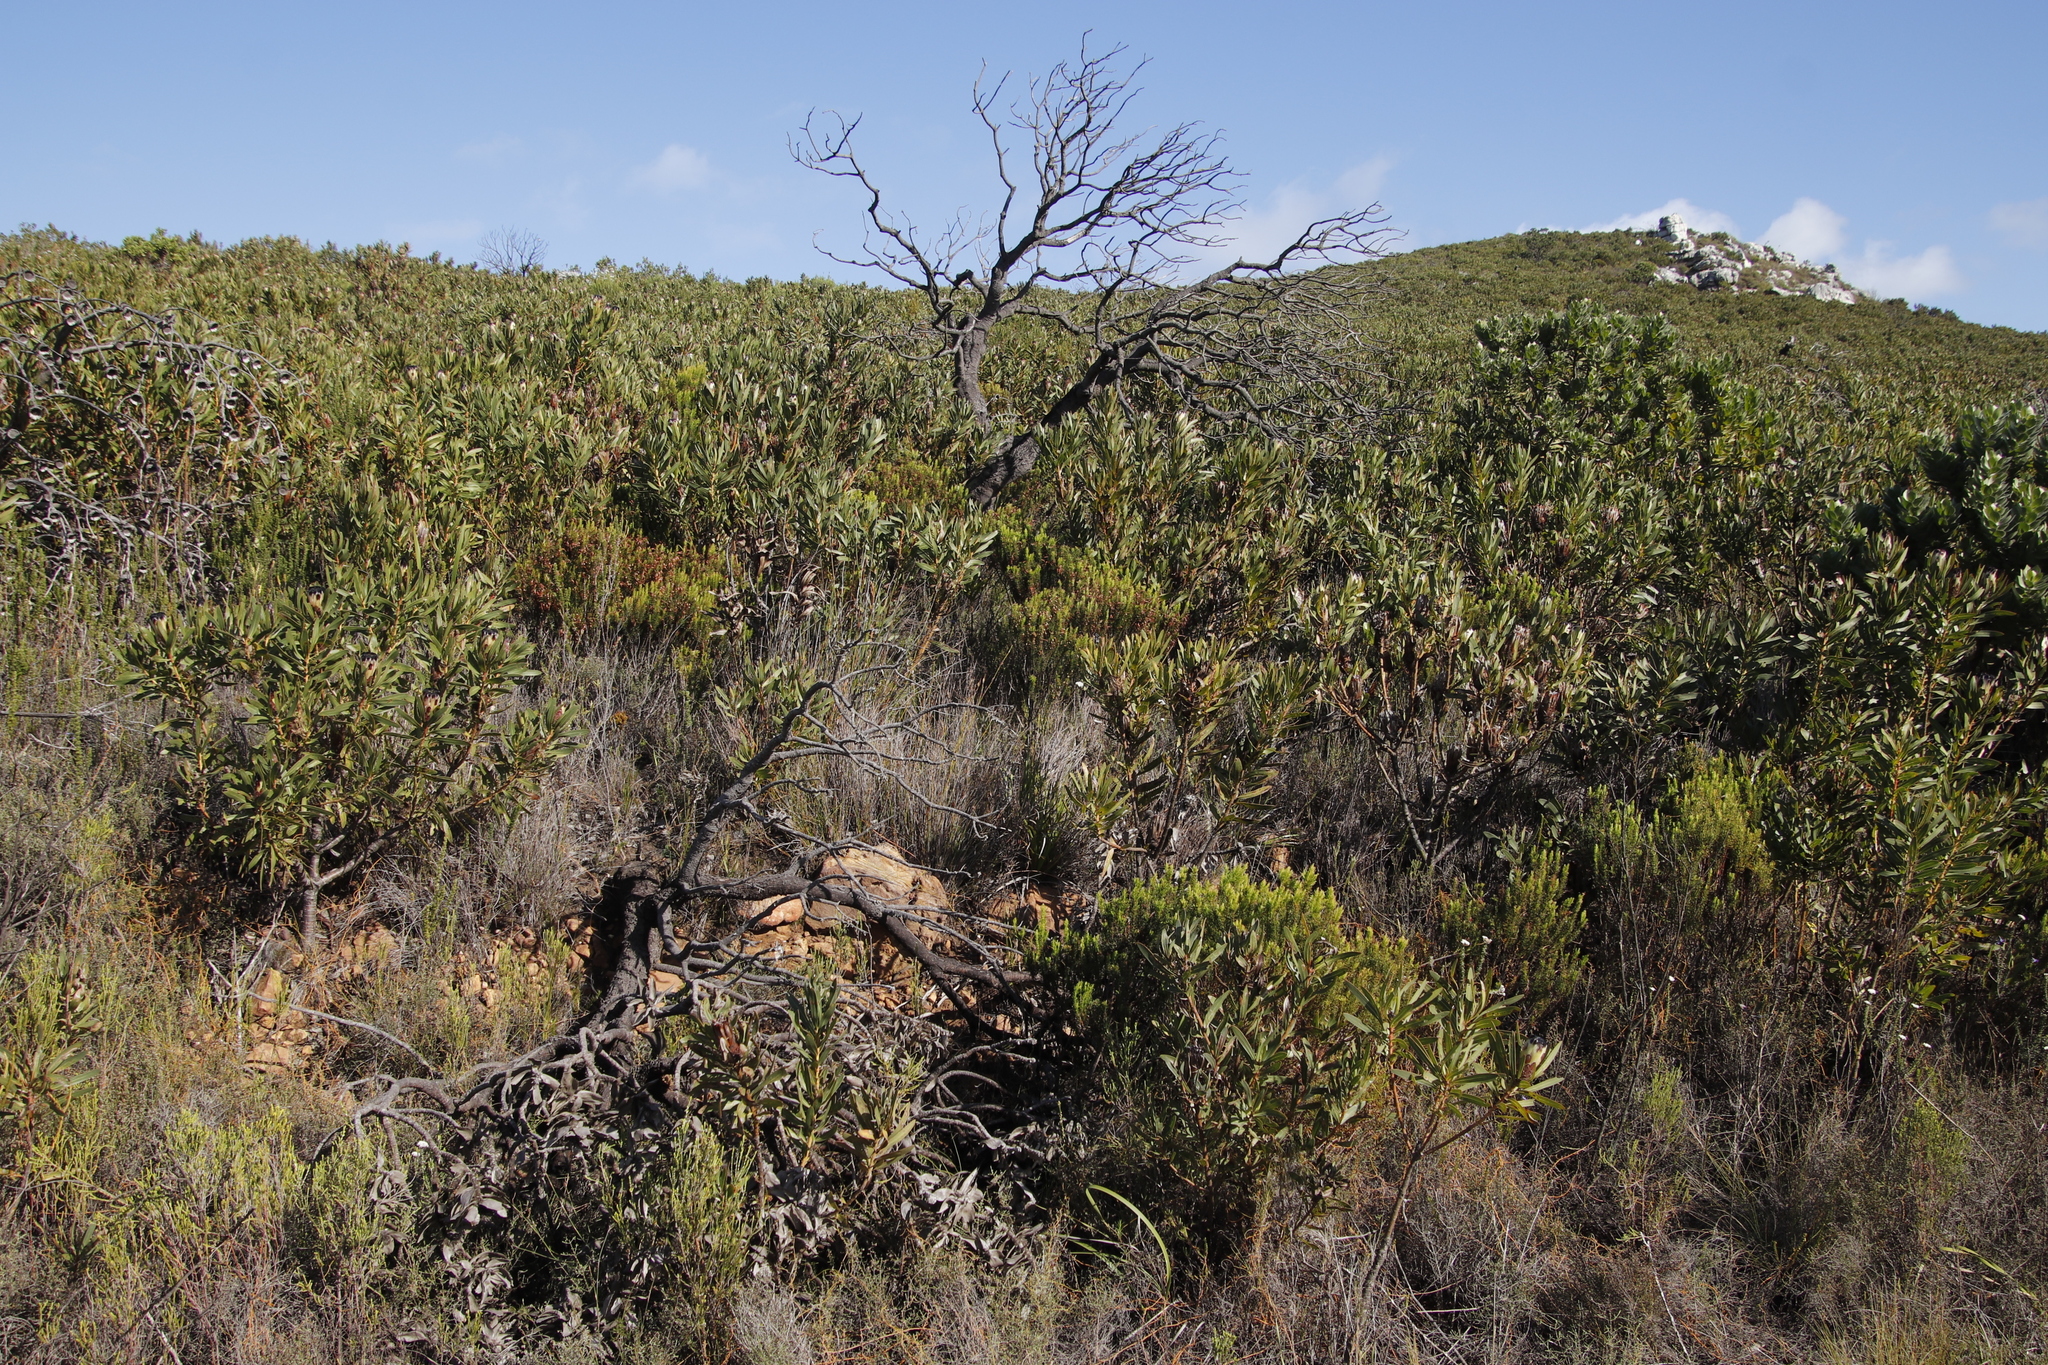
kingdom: Plantae
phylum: Tracheophyta
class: Magnoliopsida
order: Proteales
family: Proteaceae
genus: Protea
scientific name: Protea lepidocarpodendron
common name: Black-bearded protea
